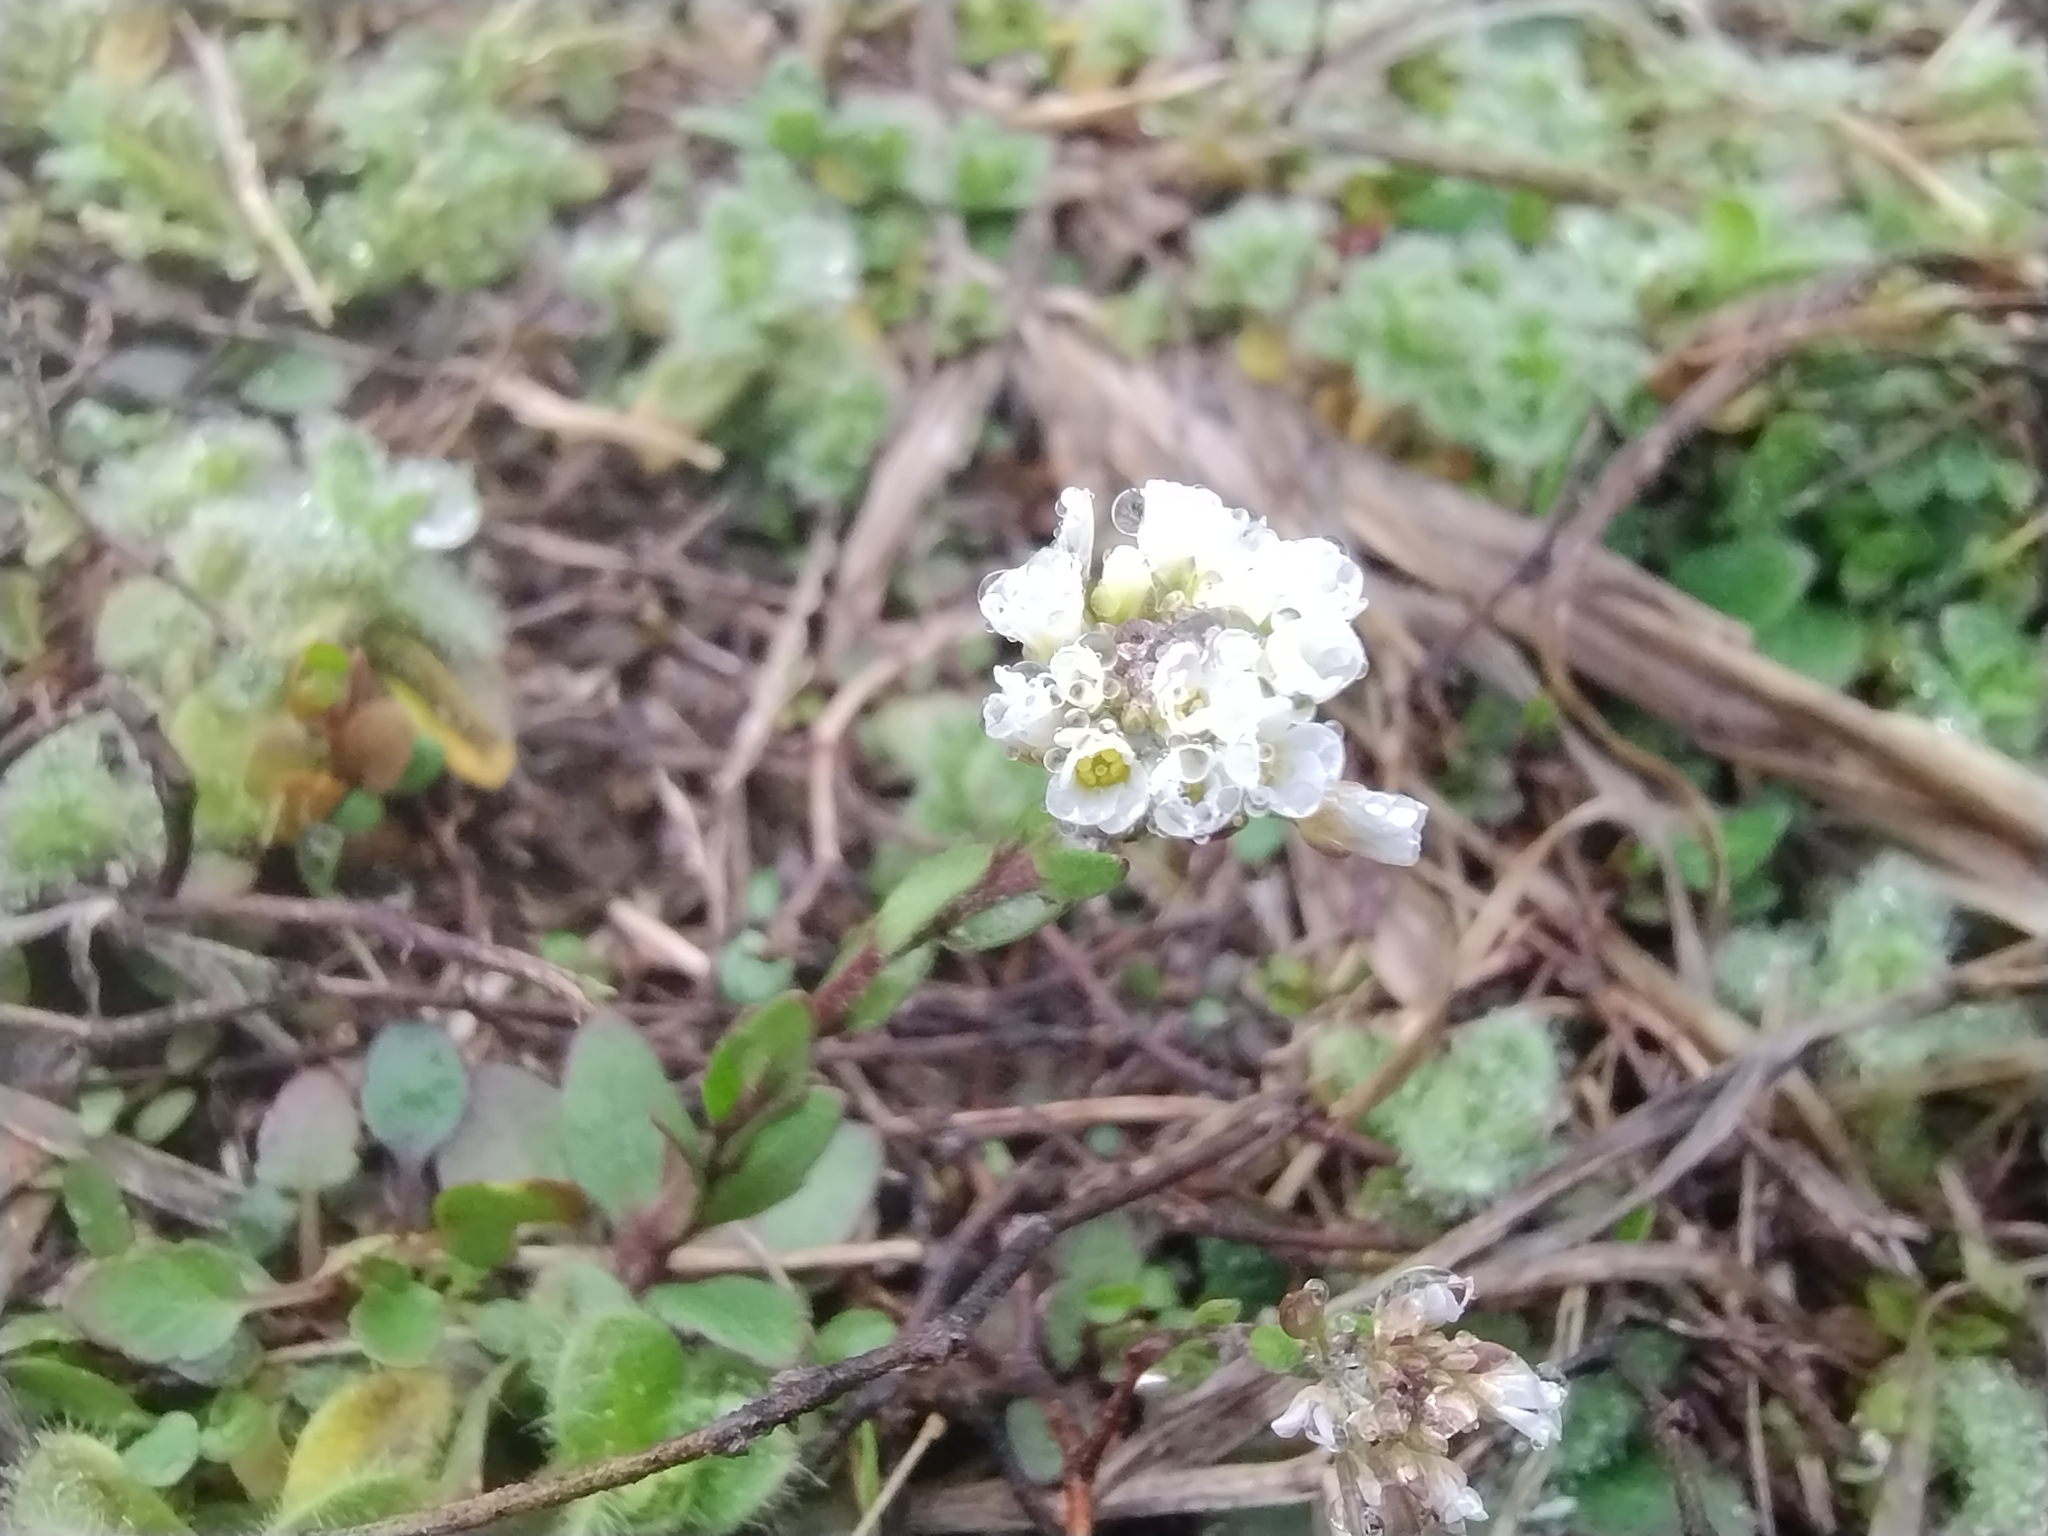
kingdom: Plantae
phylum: Tracheophyta
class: Magnoliopsida
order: Brassicales
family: Brassicaceae
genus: Abdra
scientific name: Abdra brachycarpa
